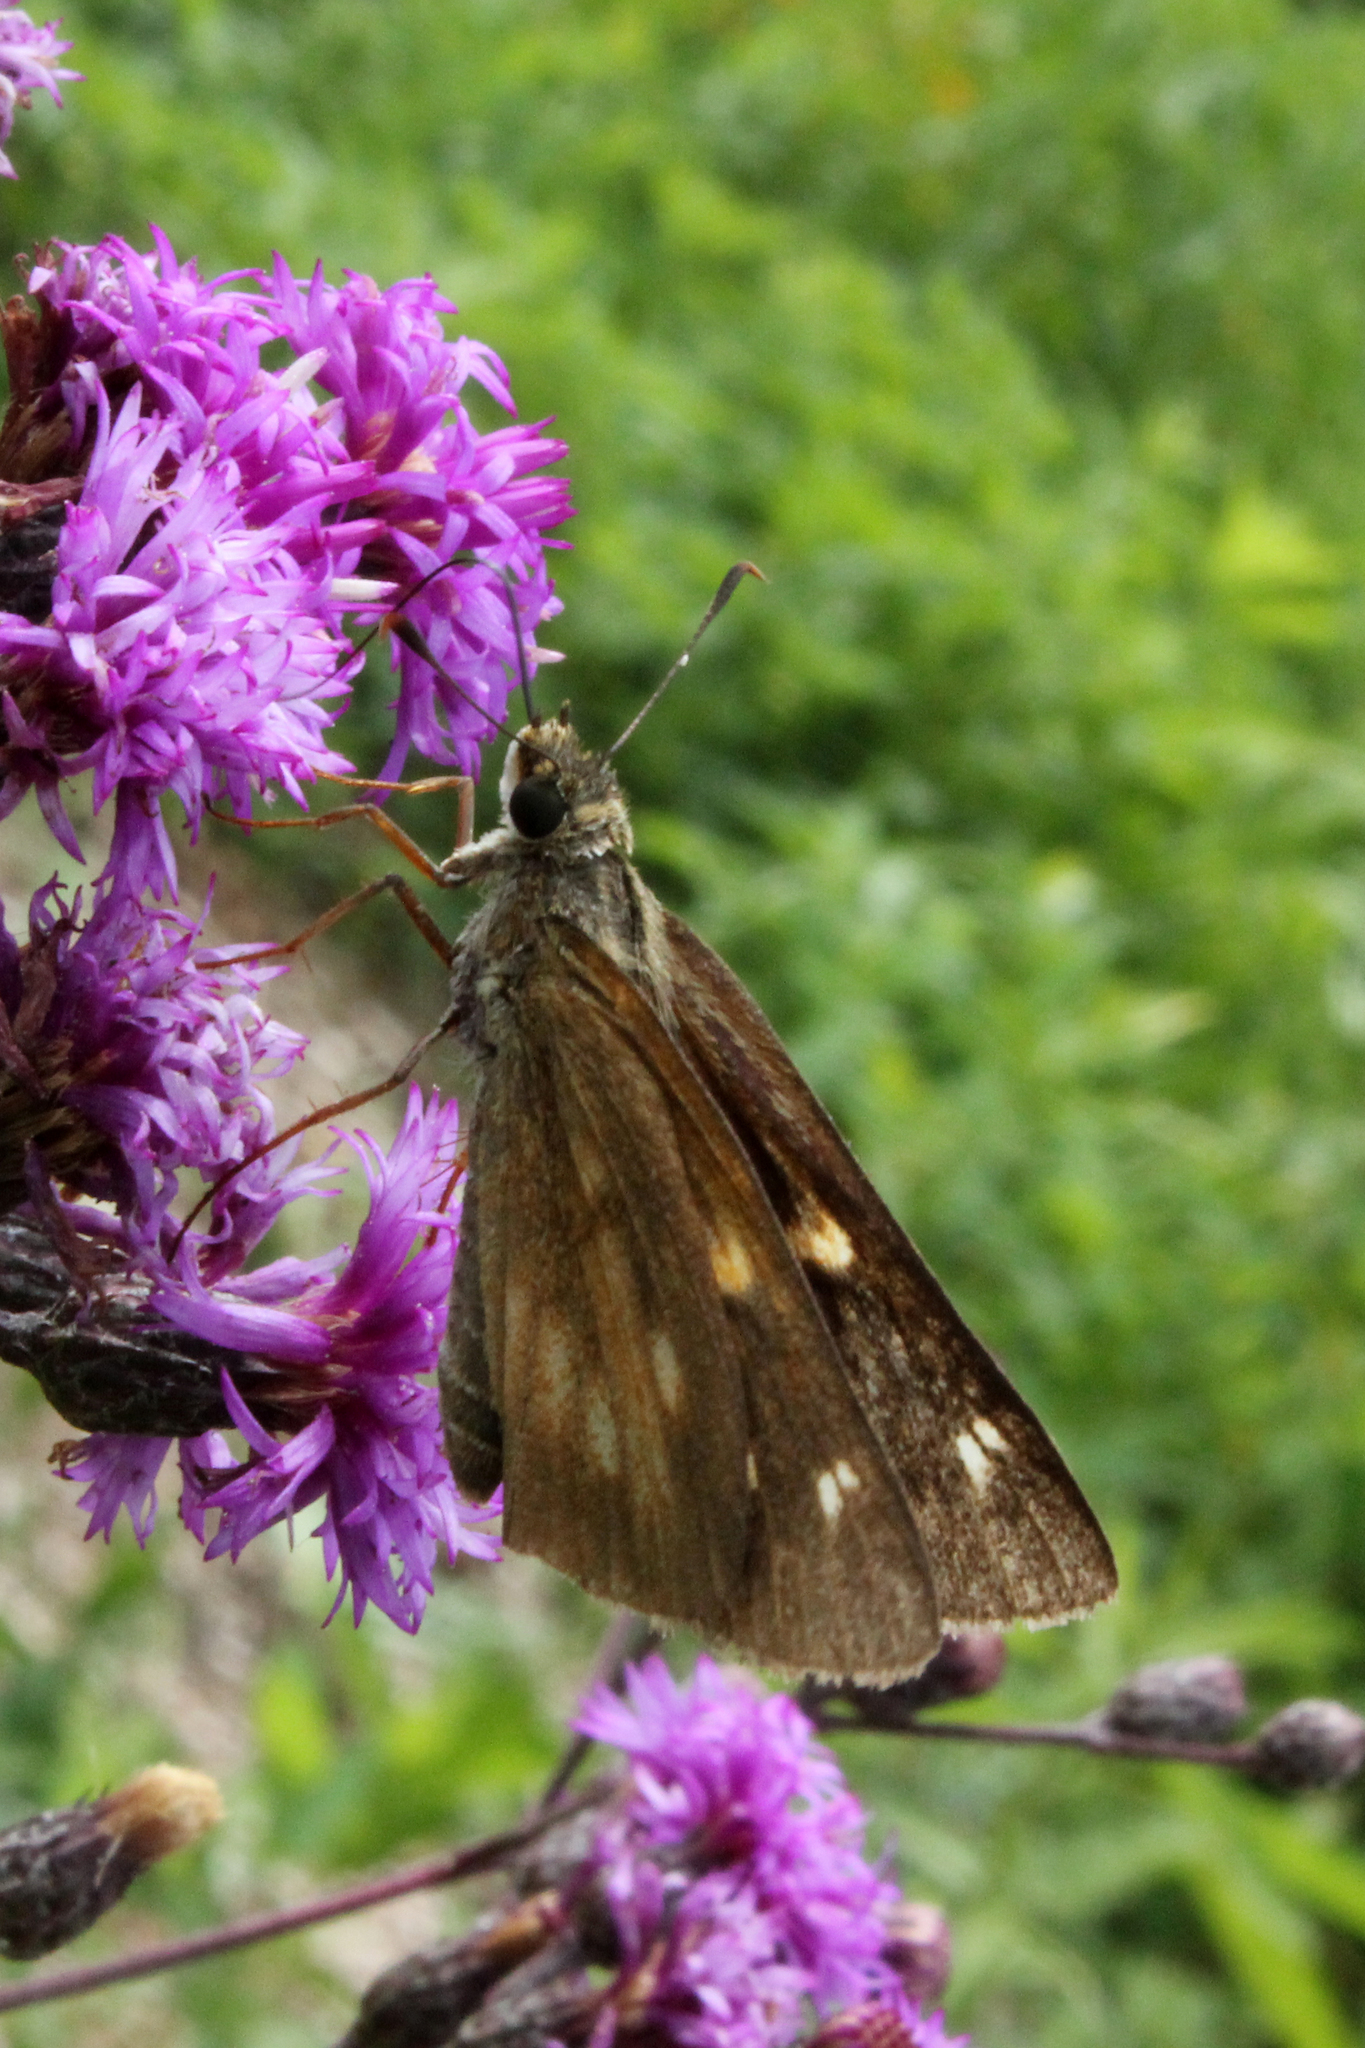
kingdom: Animalia
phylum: Arthropoda
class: Insecta
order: Lepidoptera
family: Hesperiidae
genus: Poanes
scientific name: Poanes viator
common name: Broad-winged skipper
